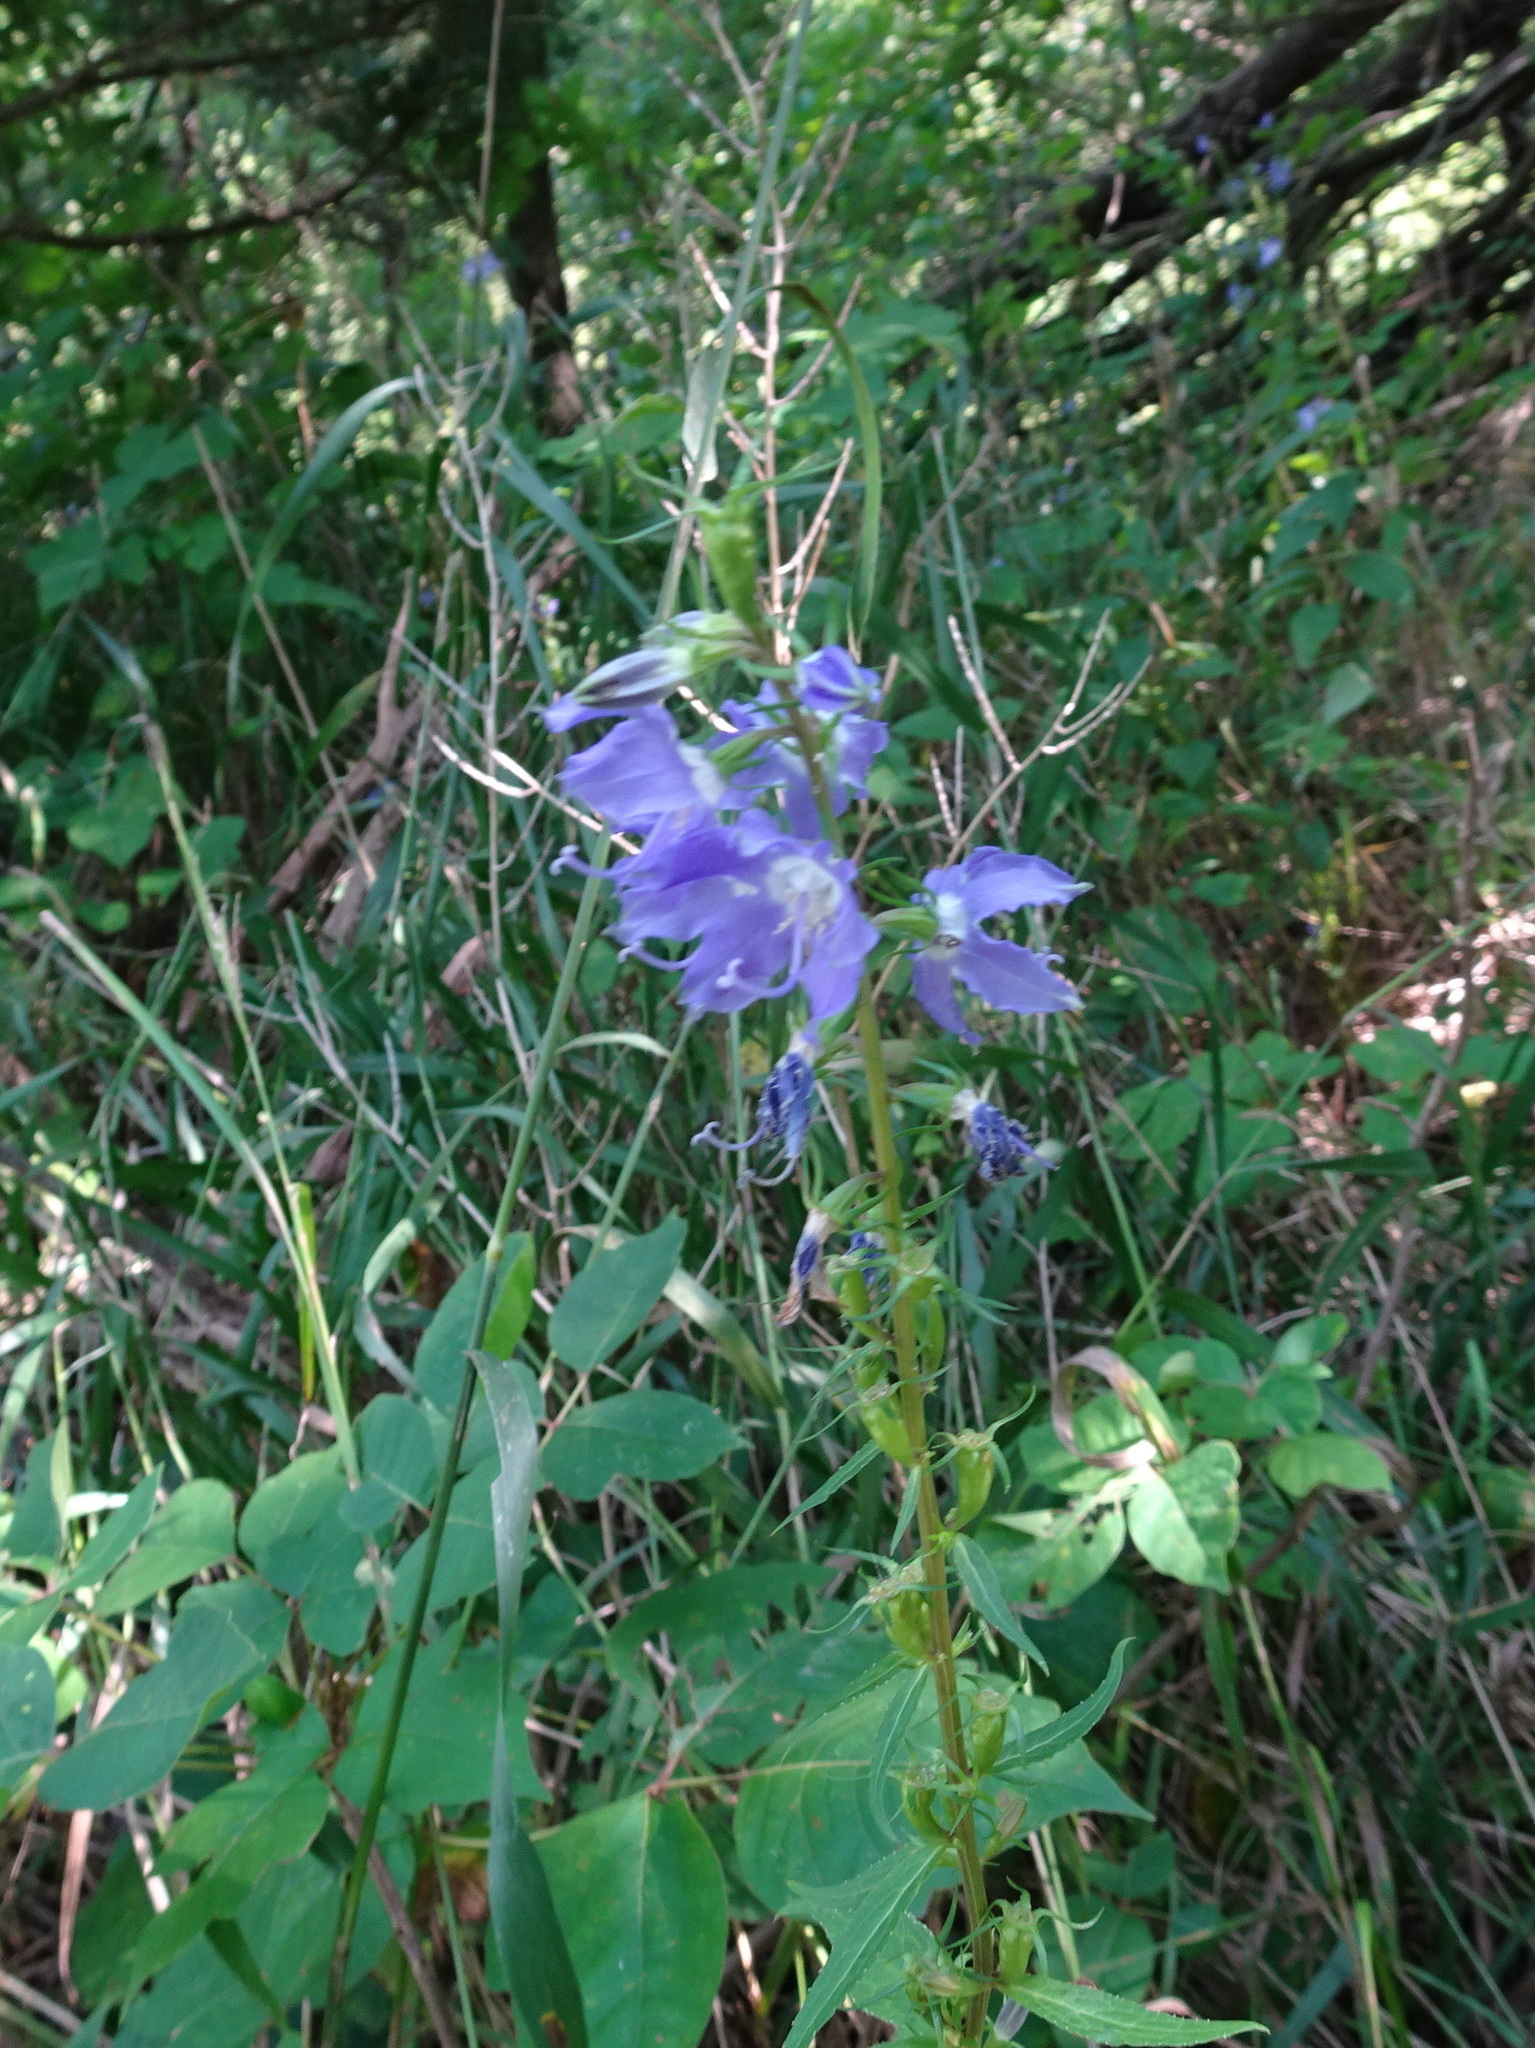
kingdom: Plantae
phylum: Tracheophyta
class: Magnoliopsida
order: Asterales
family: Campanulaceae
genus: Campanulastrum
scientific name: Campanulastrum americanum
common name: American bellflower
